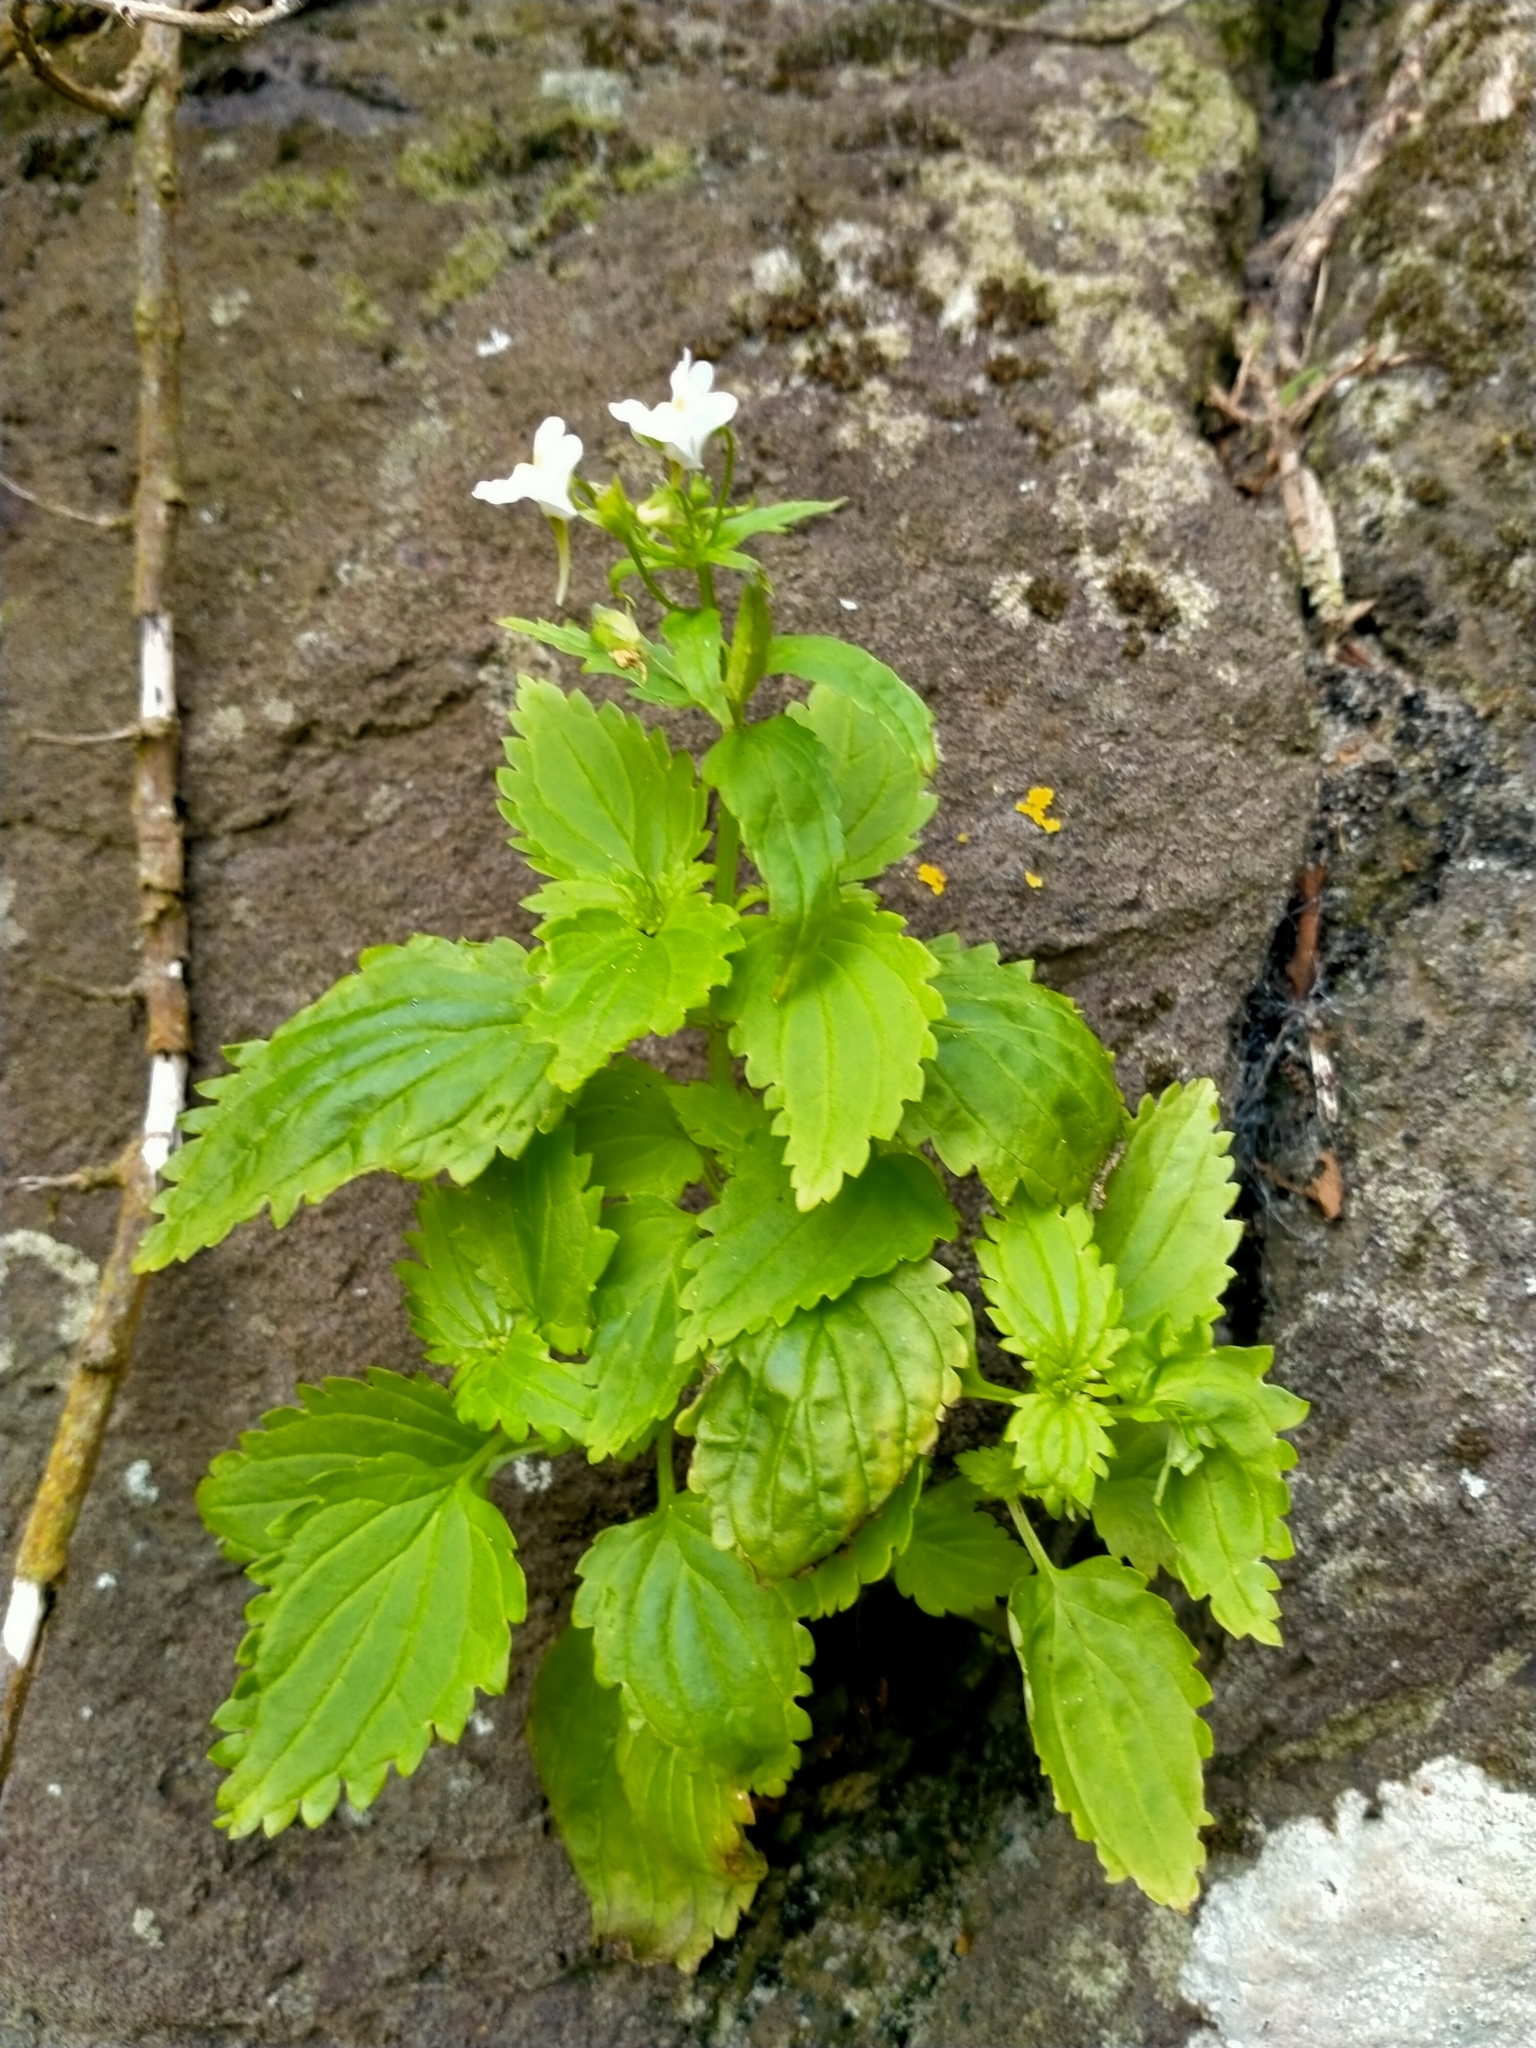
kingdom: Plantae
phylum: Tracheophyta
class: Magnoliopsida
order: Lamiales
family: Scrophulariaceae
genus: Nemesia
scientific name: Nemesia floribunda
